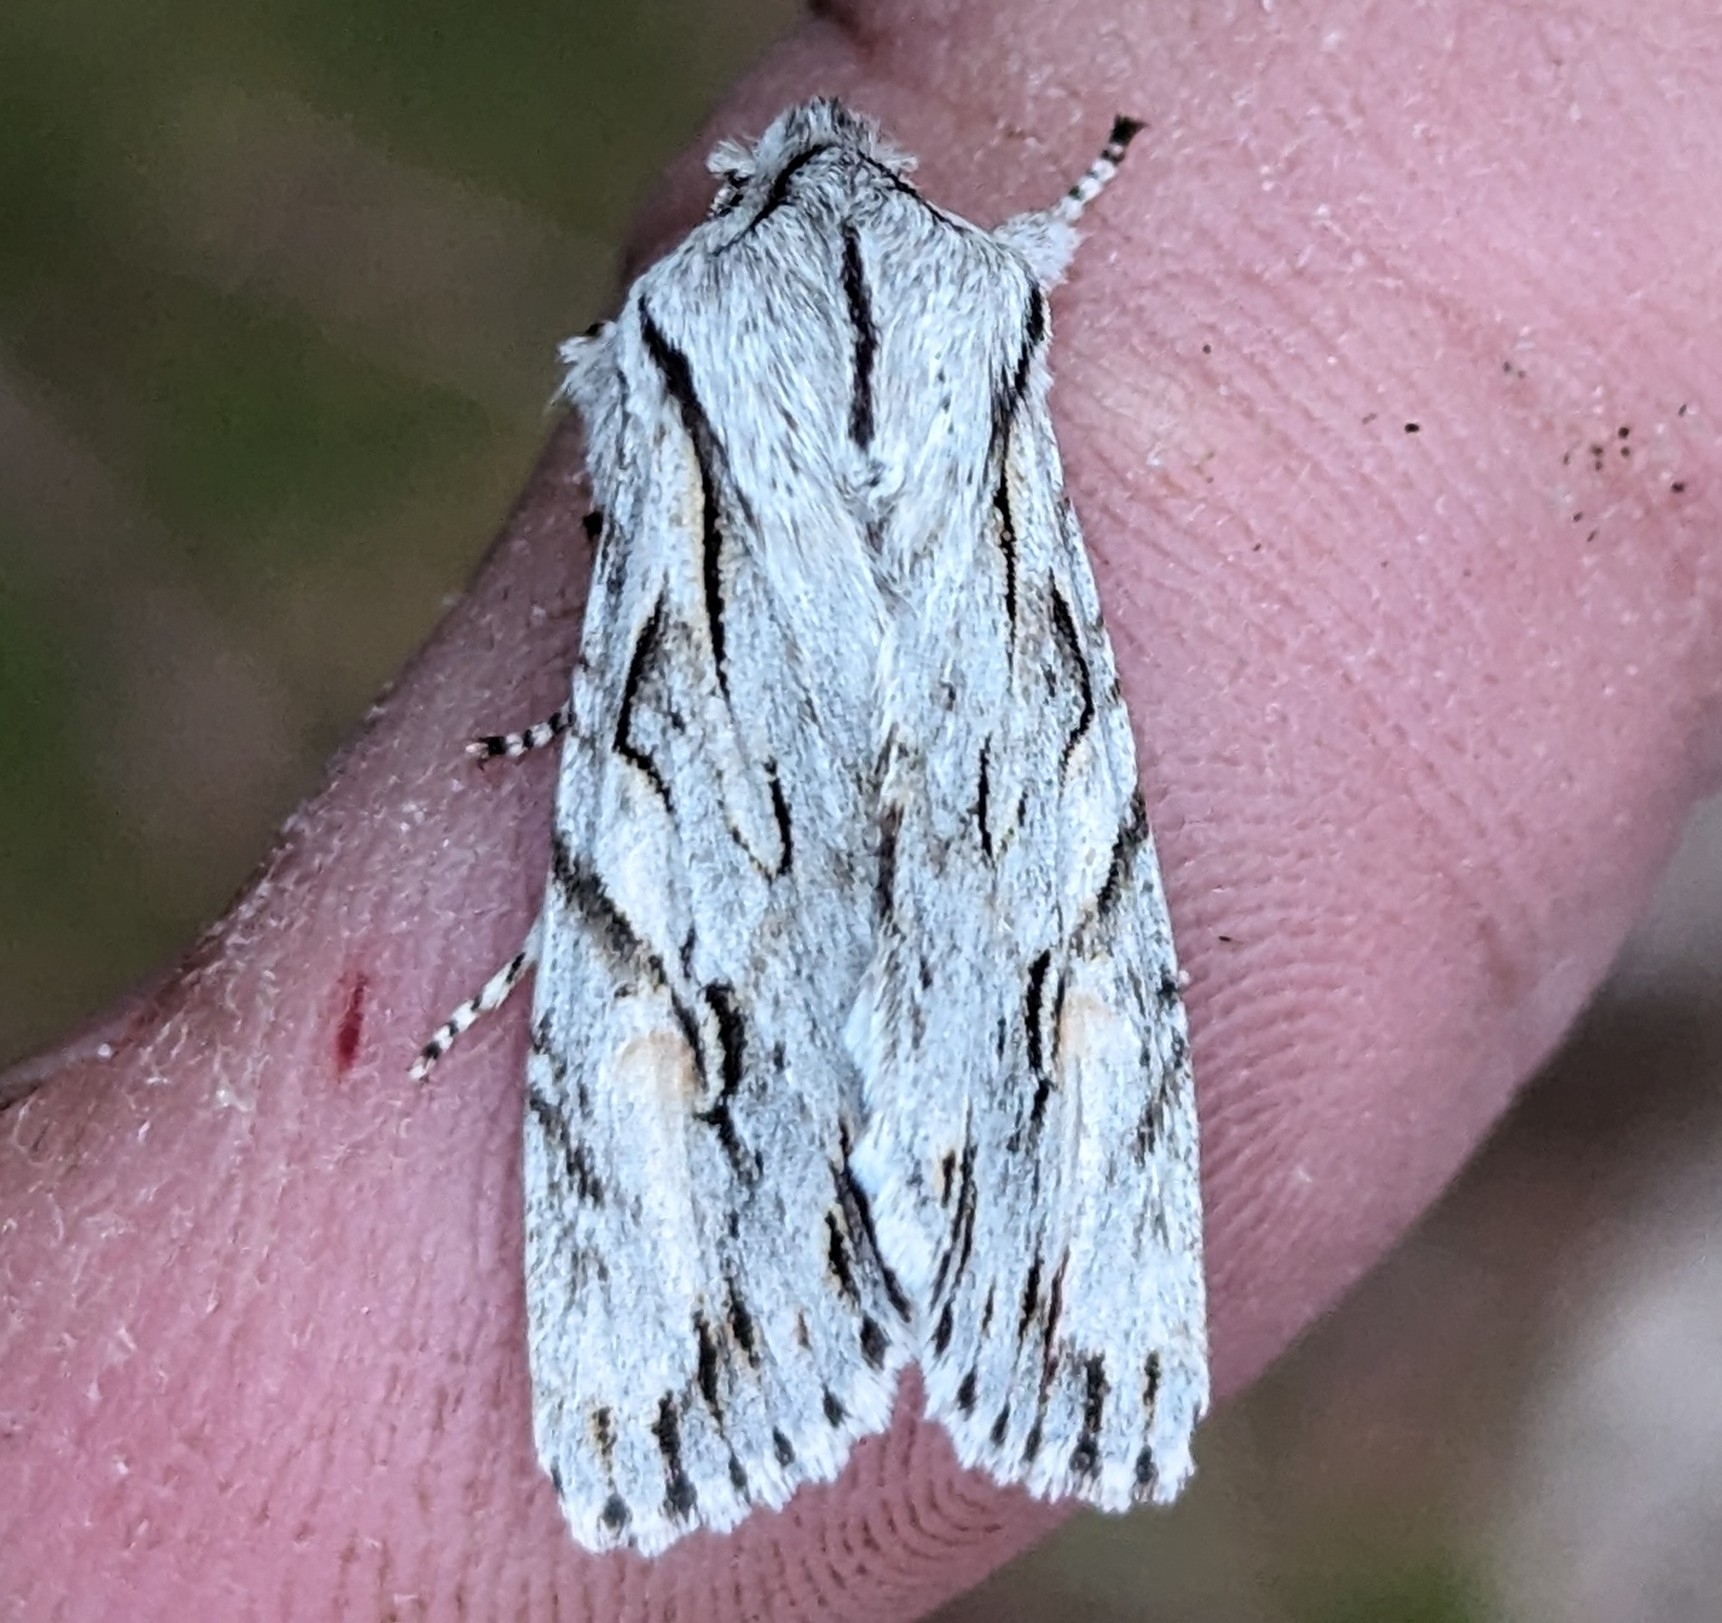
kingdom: Animalia
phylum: Arthropoda
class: Insecta
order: Lepidoptera
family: Noctuidae
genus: Egira
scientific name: Egira crucialis
